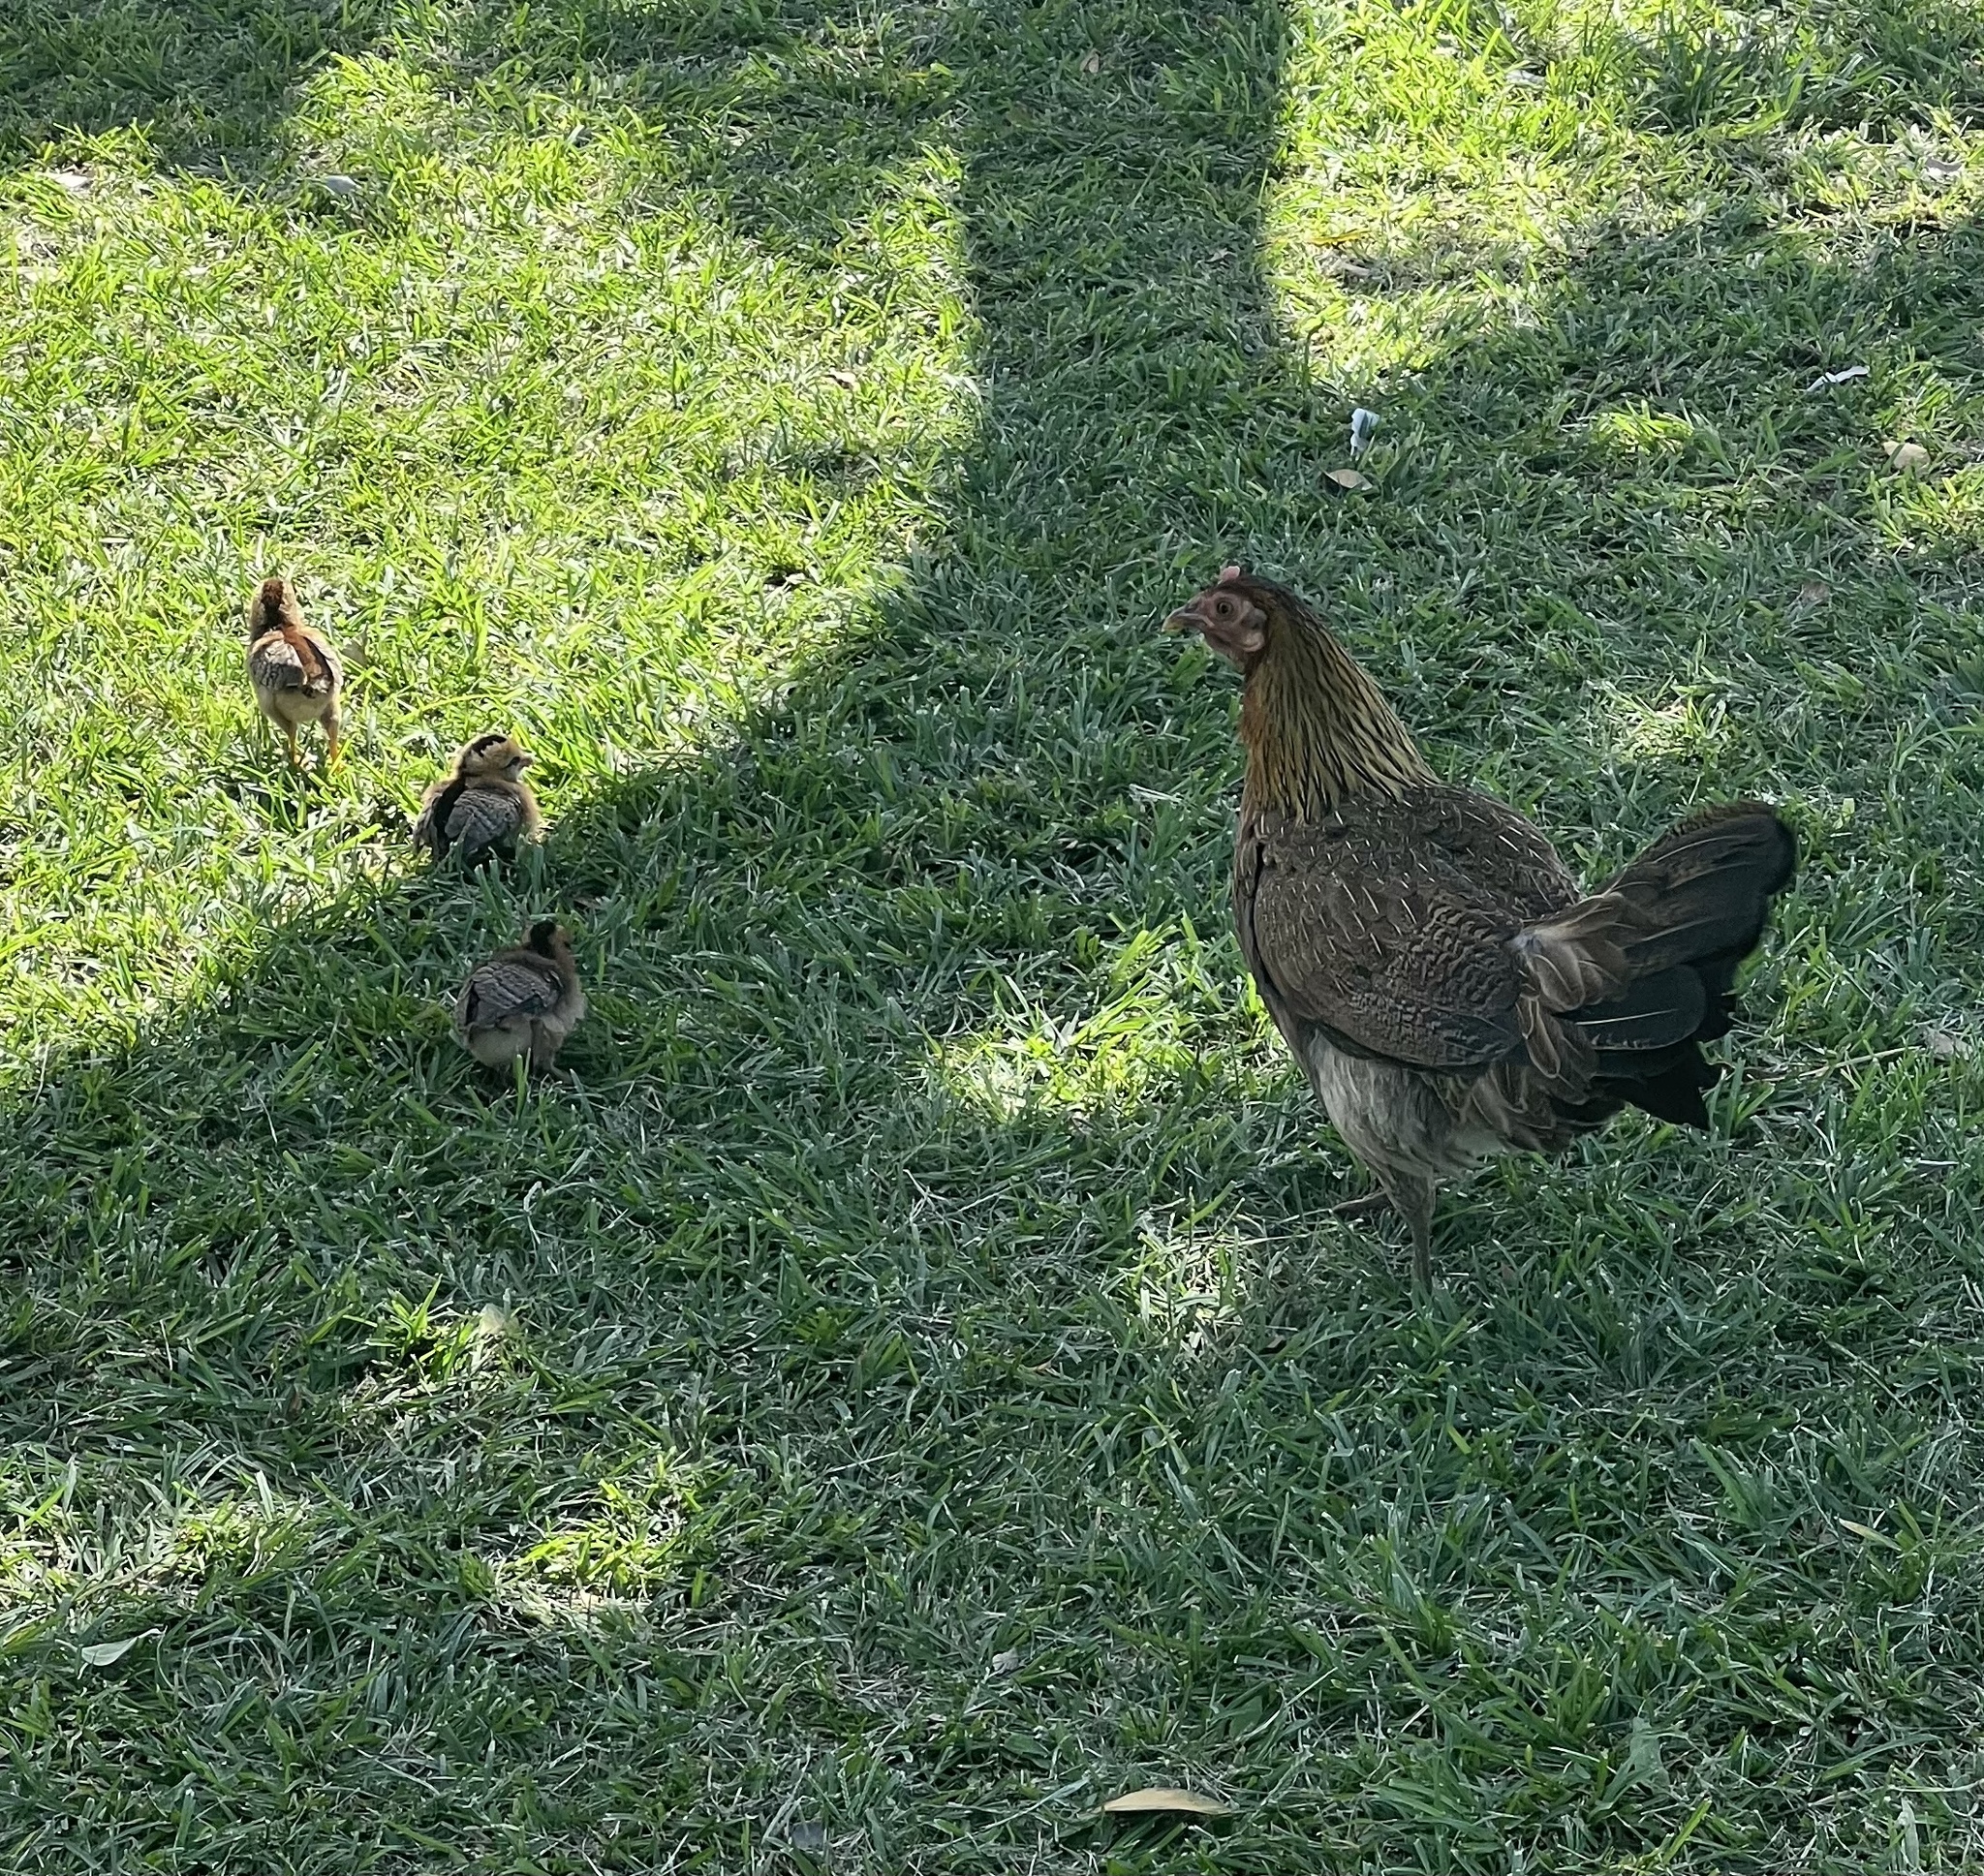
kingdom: Animalia
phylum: Chordata
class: Aves
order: Galliformes
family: Phasianidae
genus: Gallus
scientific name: Gallus gallus
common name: Red junglefowl
